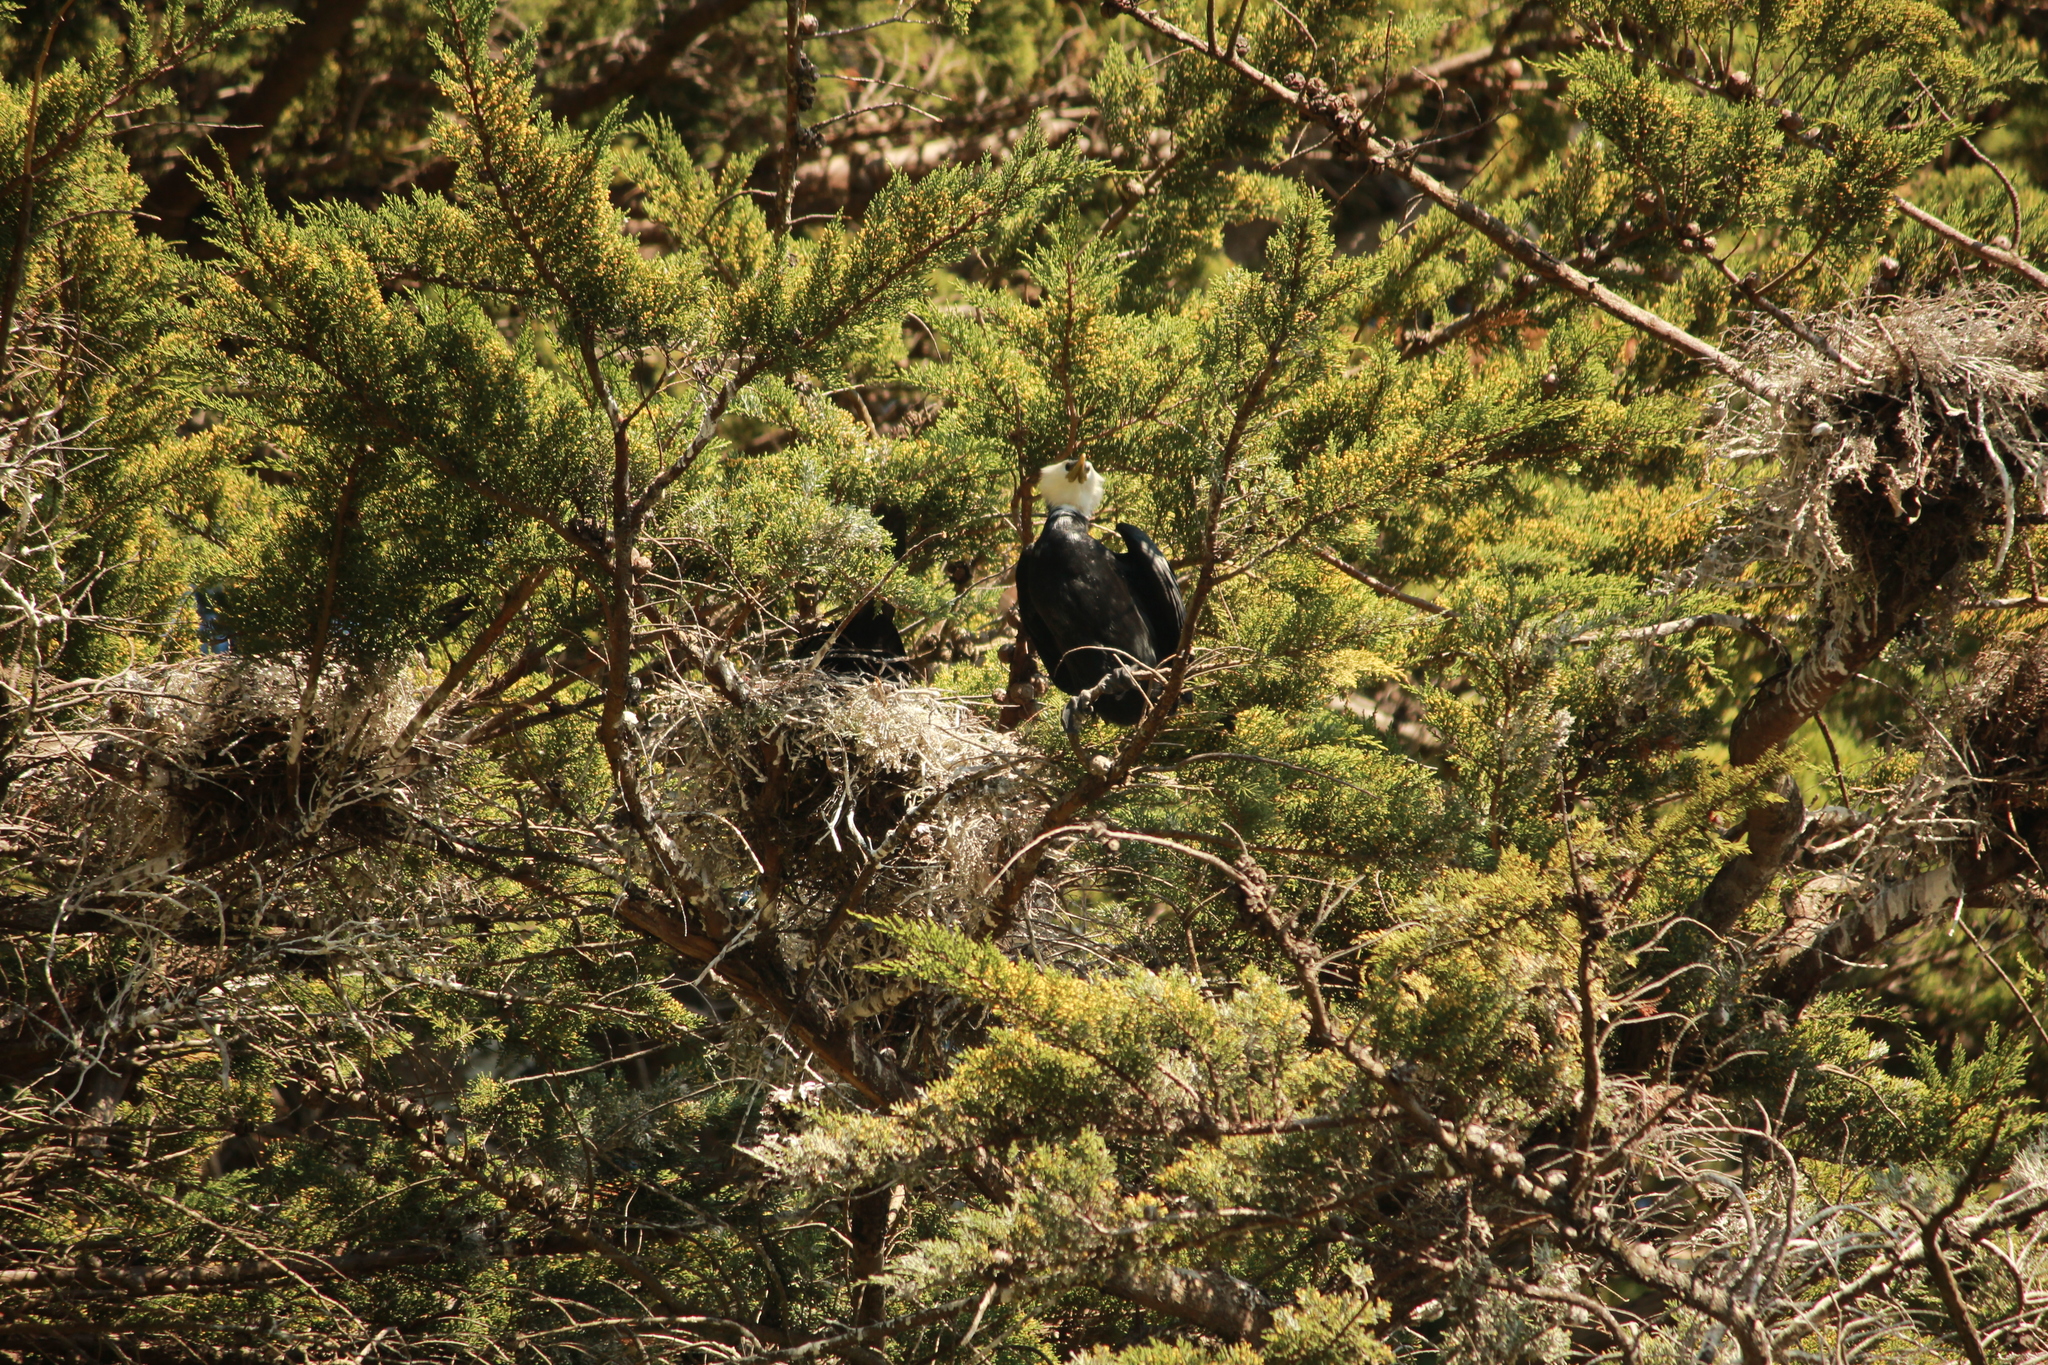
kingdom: Animalia
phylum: Chordata
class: Aves
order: Suliformes
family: Phalacrocoracidae
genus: Microcarbo
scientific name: Microcarbo melanoleucos
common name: Little pied cormorant
